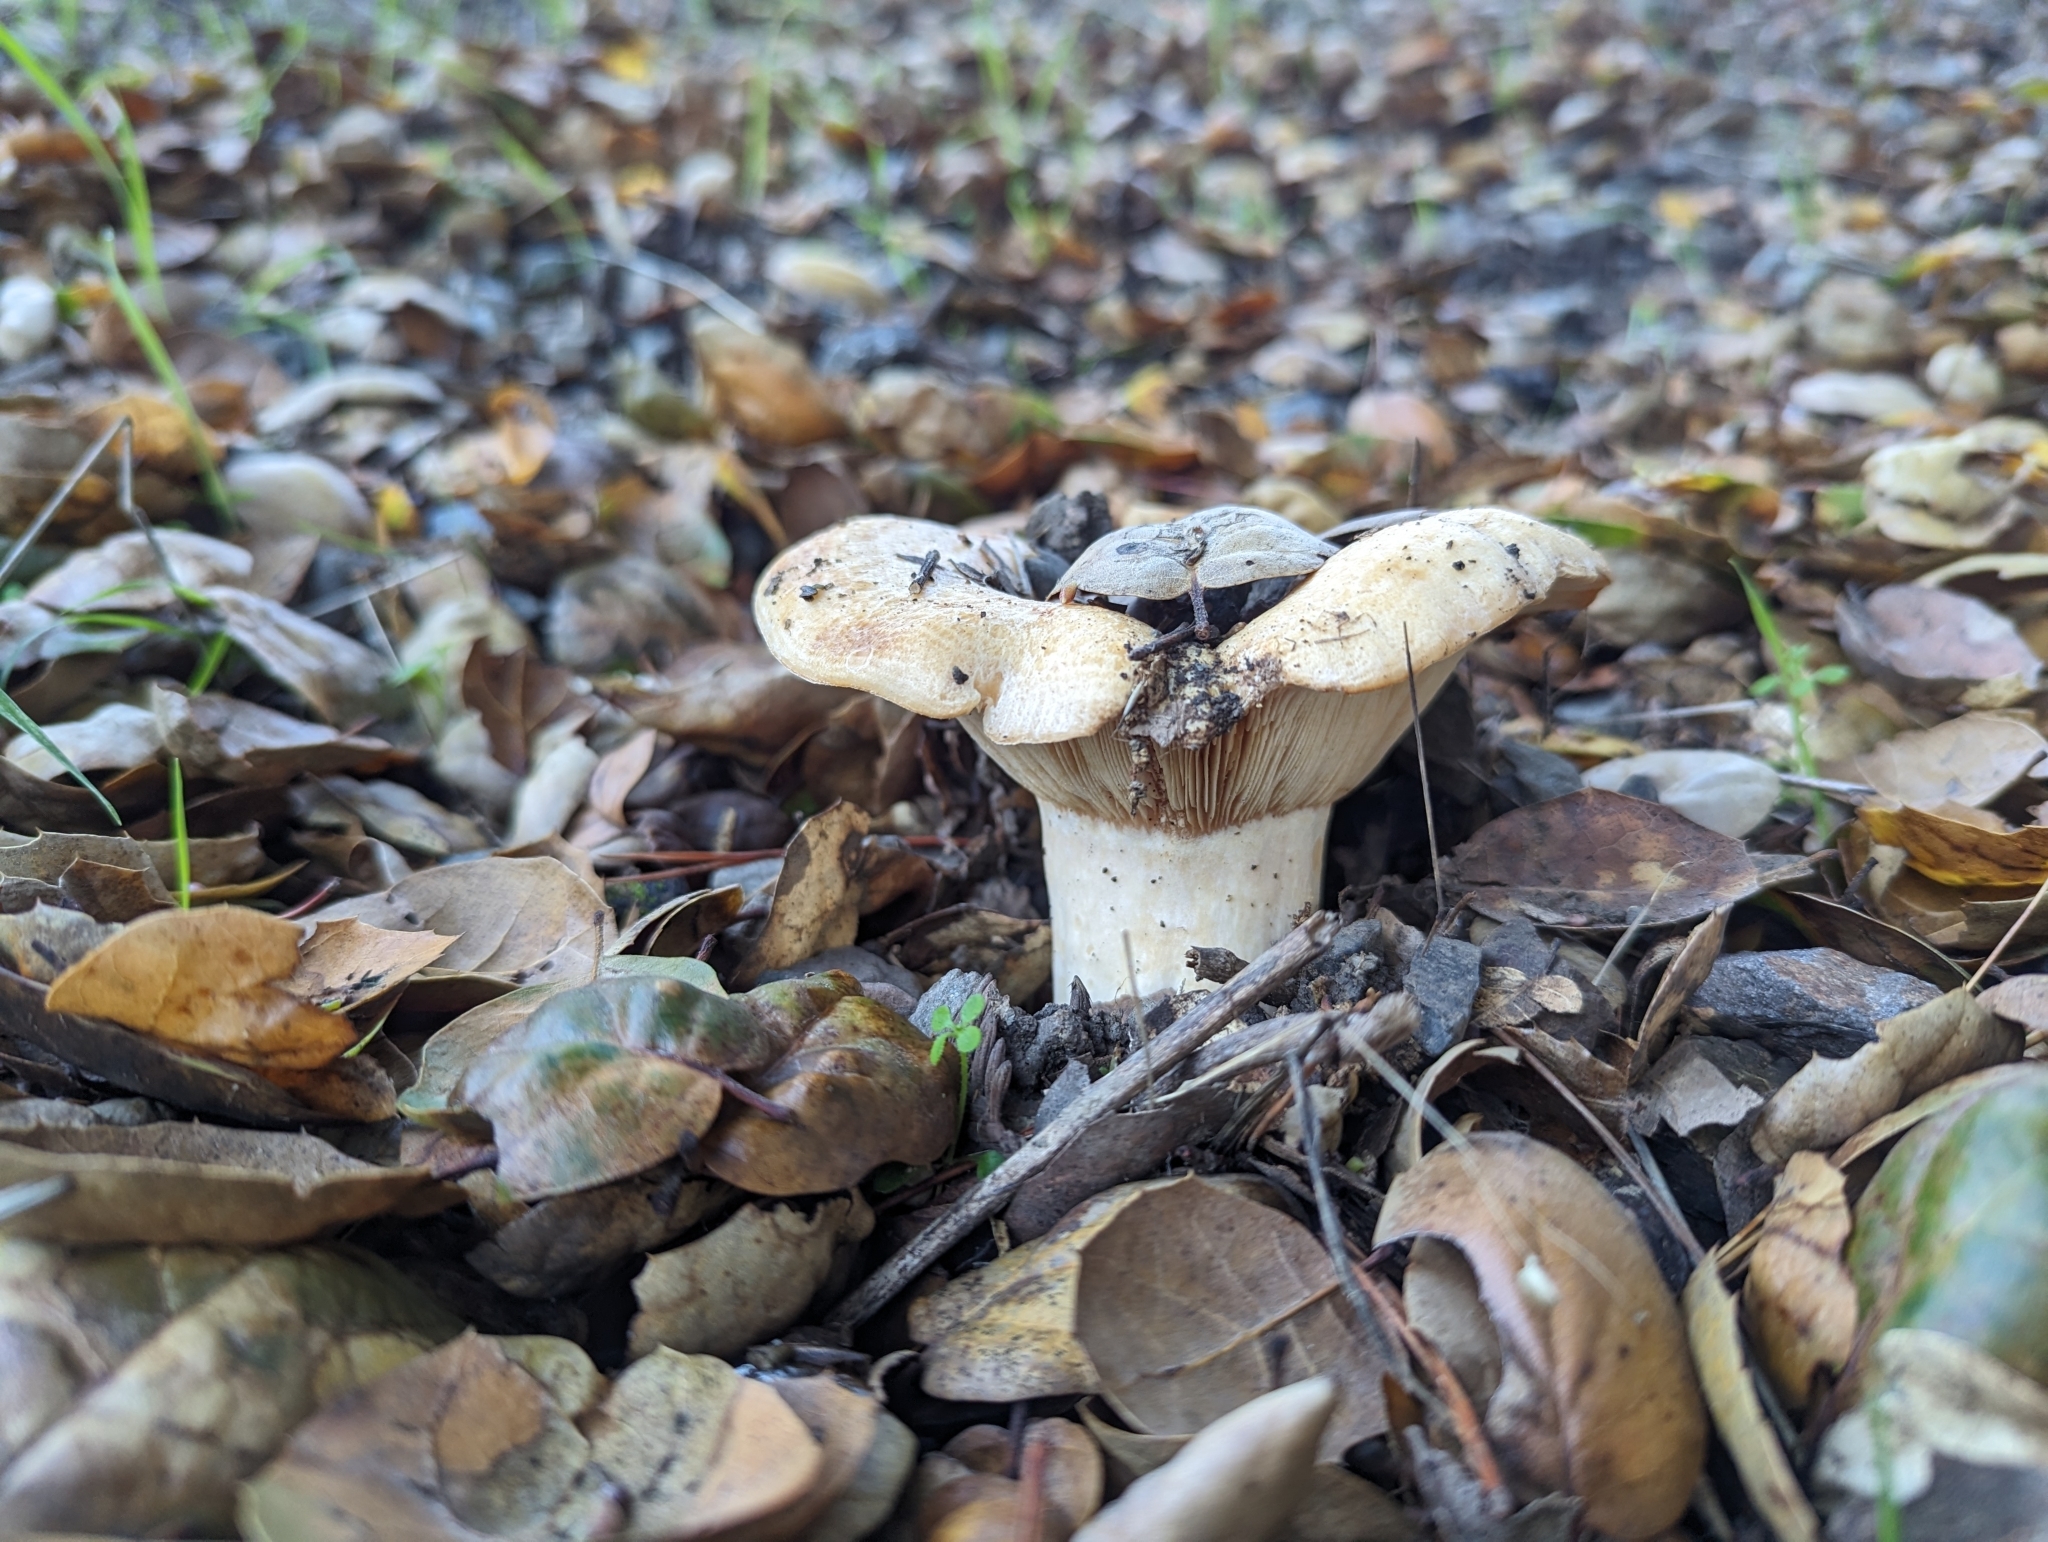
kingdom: Fungi
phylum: Basidiomycota
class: Agaricomycetes
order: Russulales
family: Russulaceae
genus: Lactarius
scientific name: Lactarius alnicola
